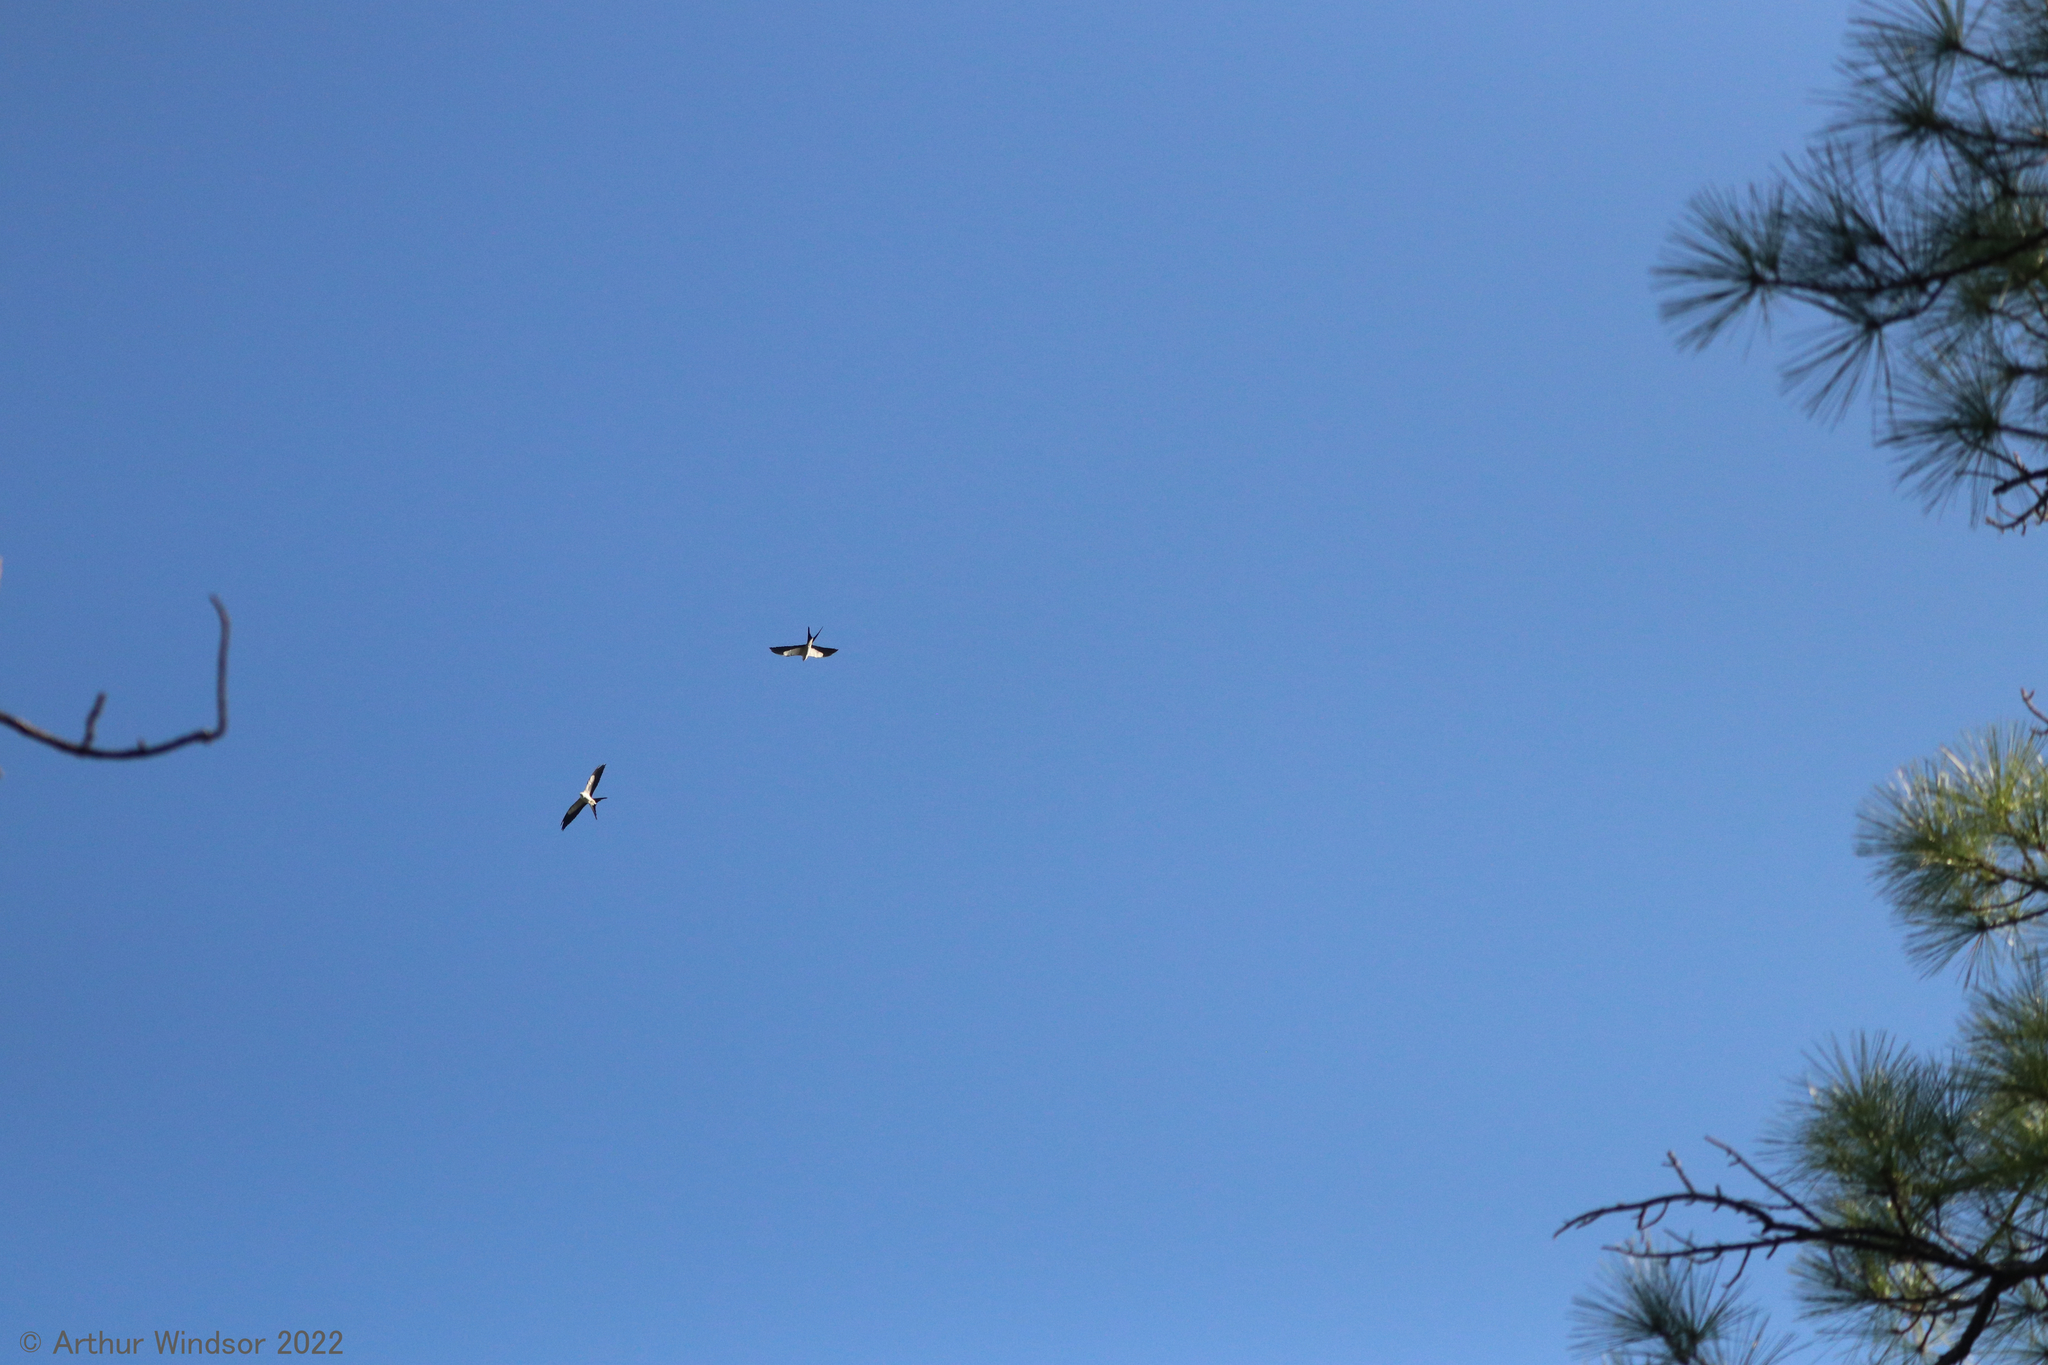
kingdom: Animalia
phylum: Chordata
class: Aves
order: Accipitriformes
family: Accipitridae
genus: Elanoides
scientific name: Elanoides forficatus
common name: Swallow-tailed kite
